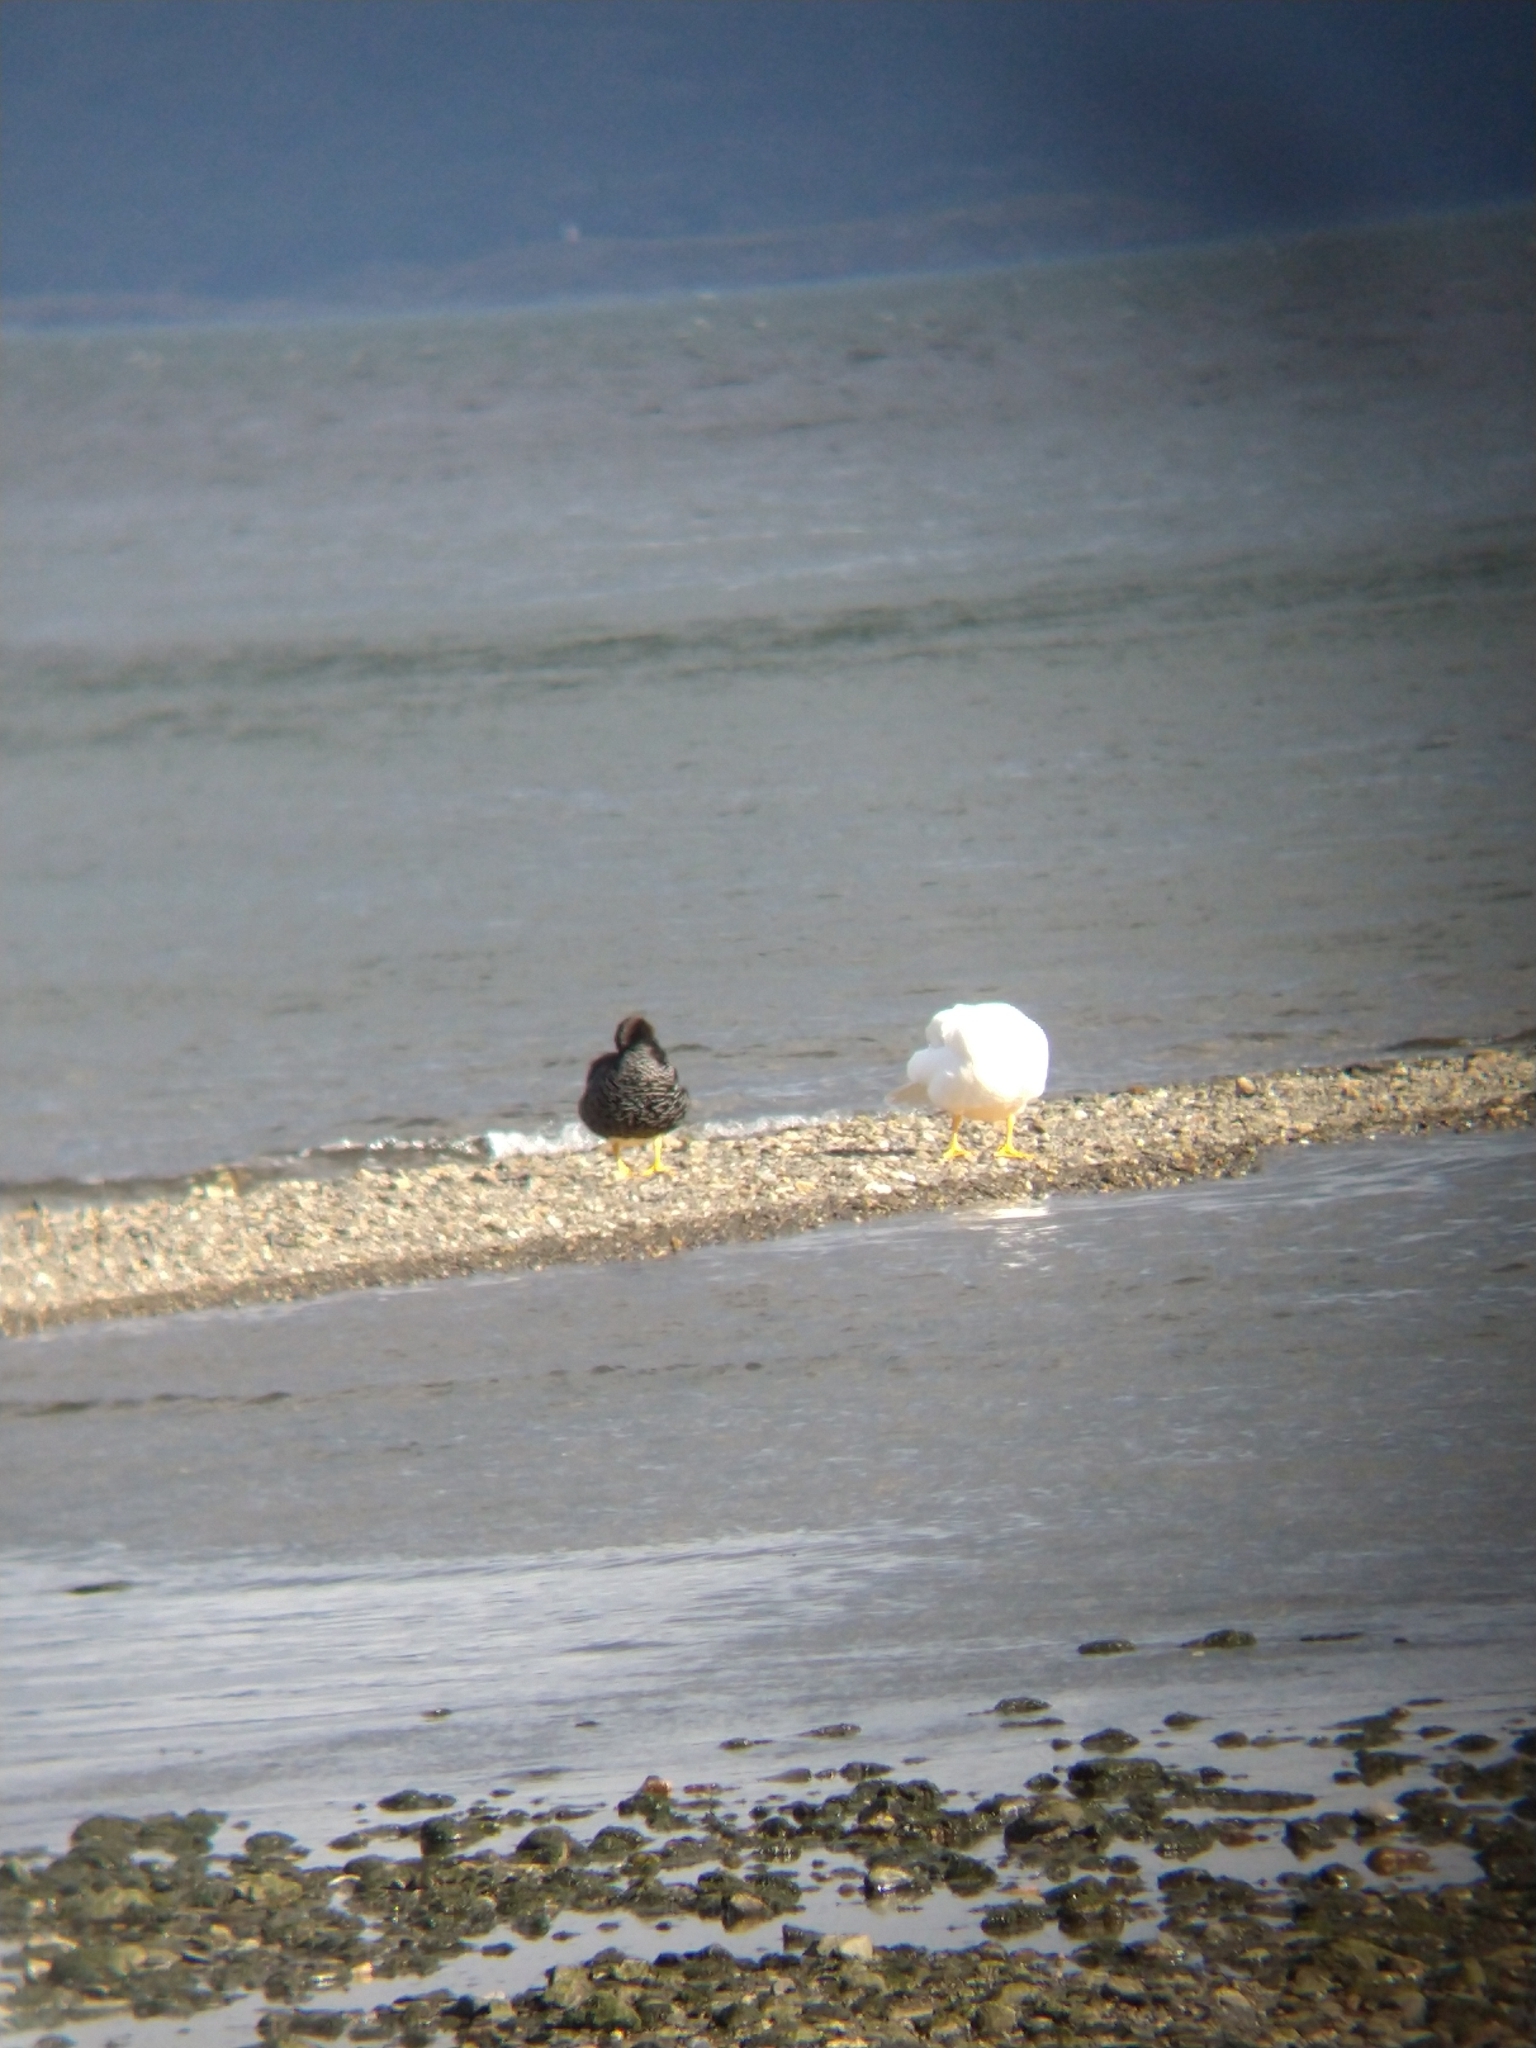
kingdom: Animalia
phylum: Chordata
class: Aves
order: Anseriformes
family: Anatidae
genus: Chloephaga
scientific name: Chloephaga hybrida
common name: Kelp goose
